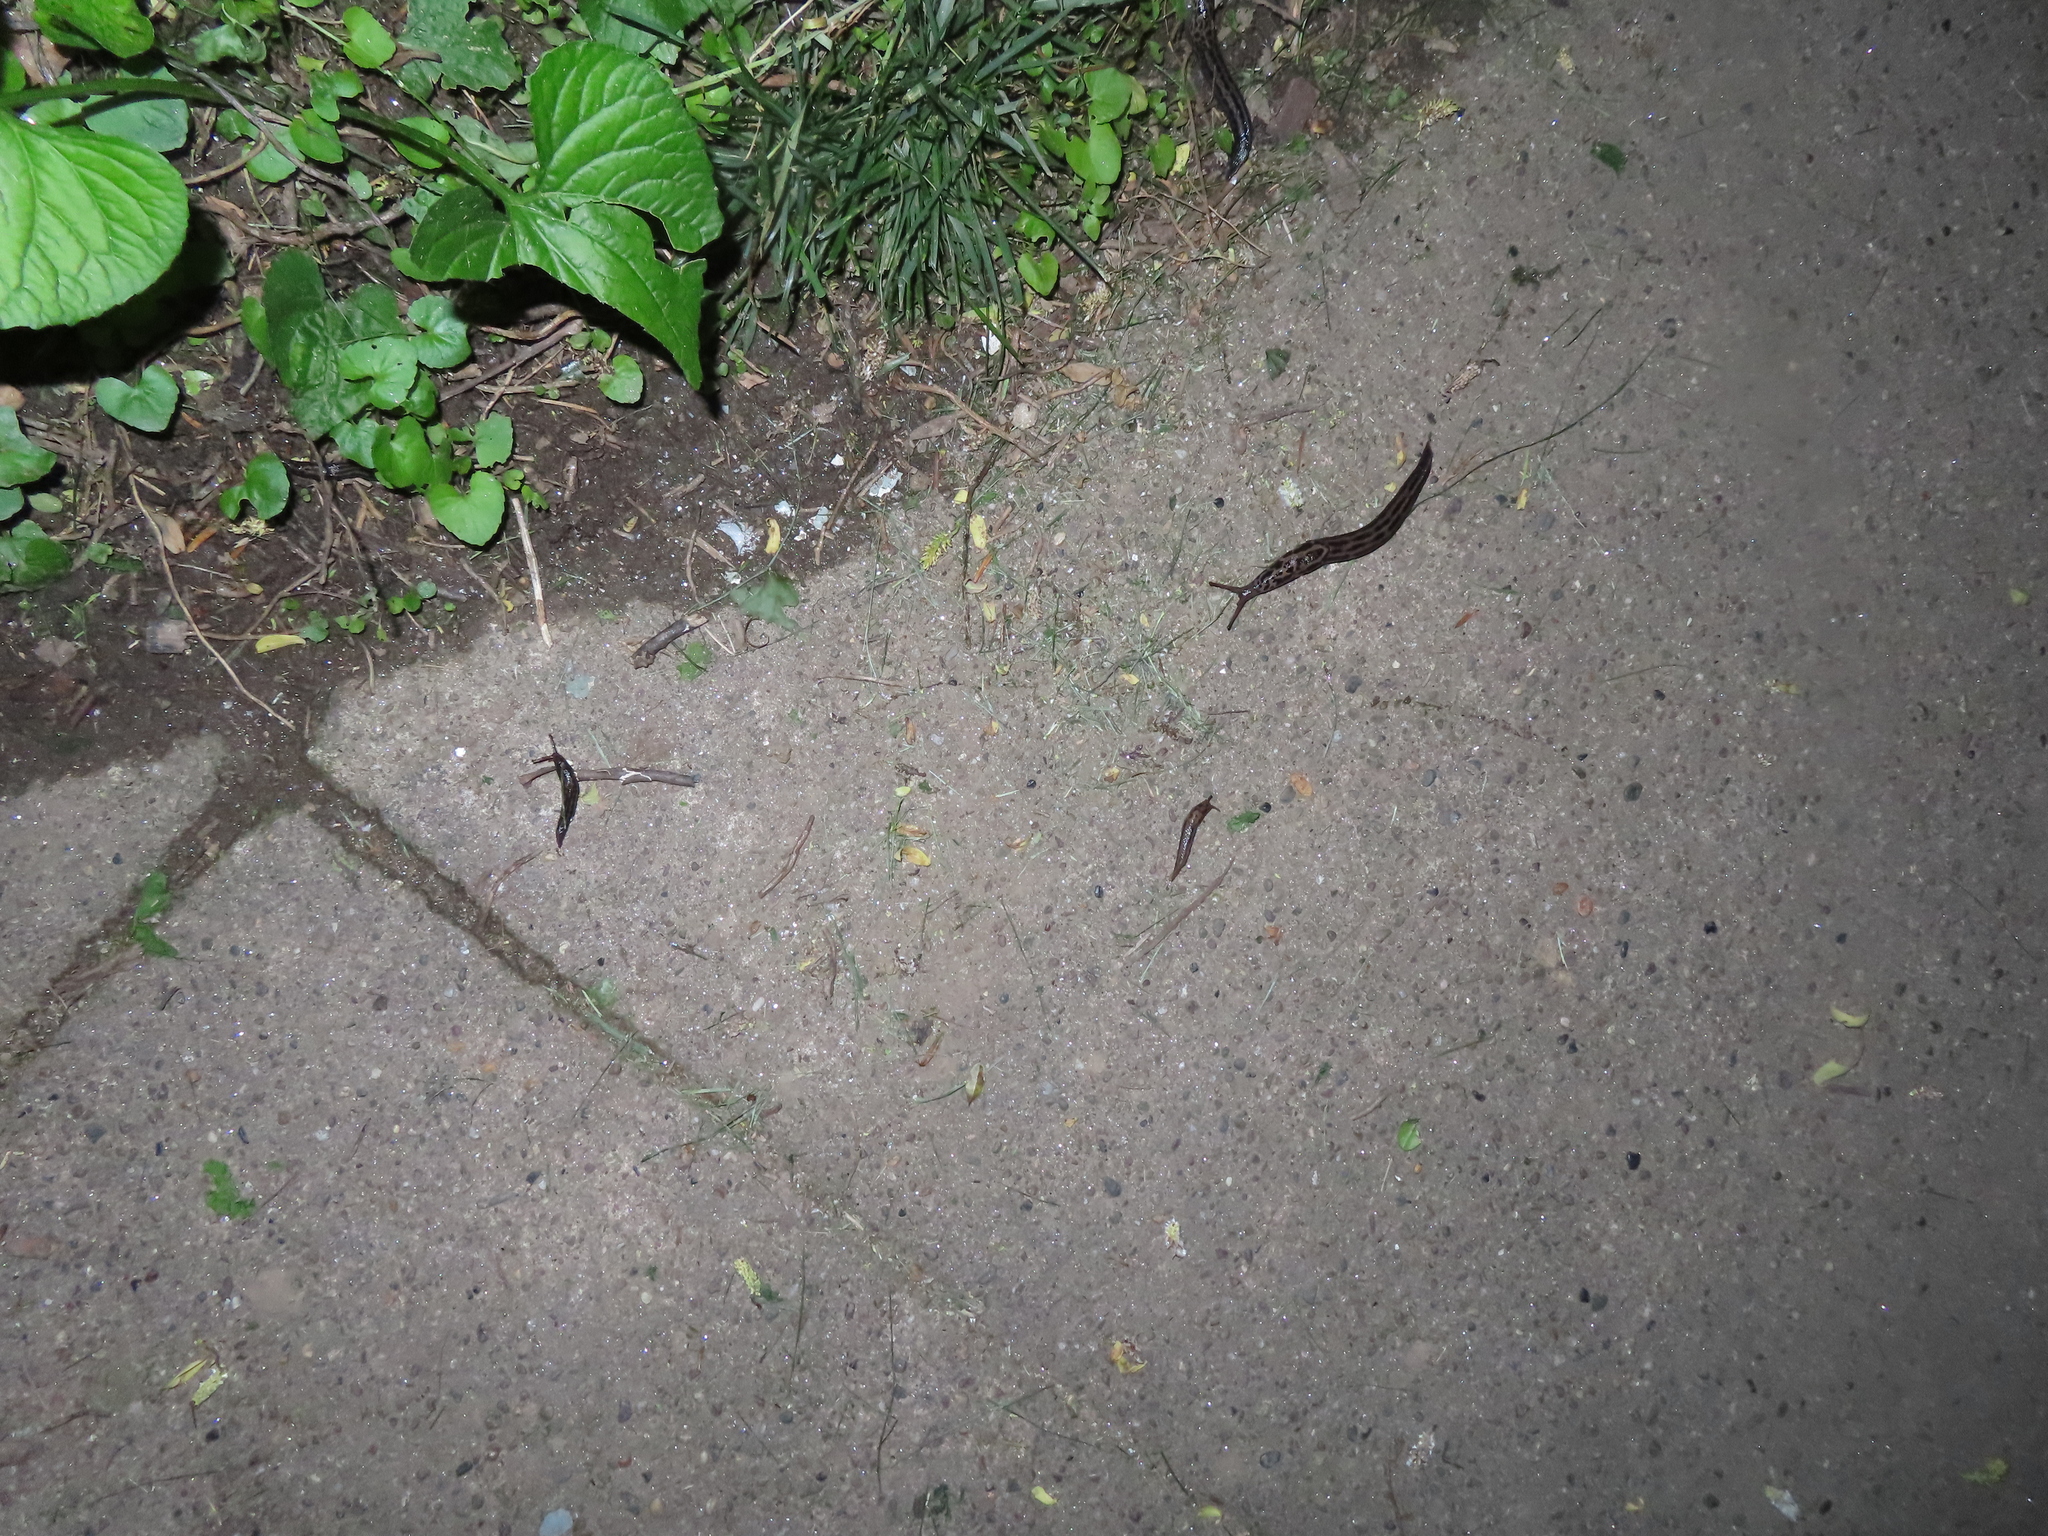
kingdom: Animalia
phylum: Mollusca
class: Gastropoda
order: Stylommatophora
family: Limacidae
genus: Limax
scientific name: Limax maximus
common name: Great grey slug
